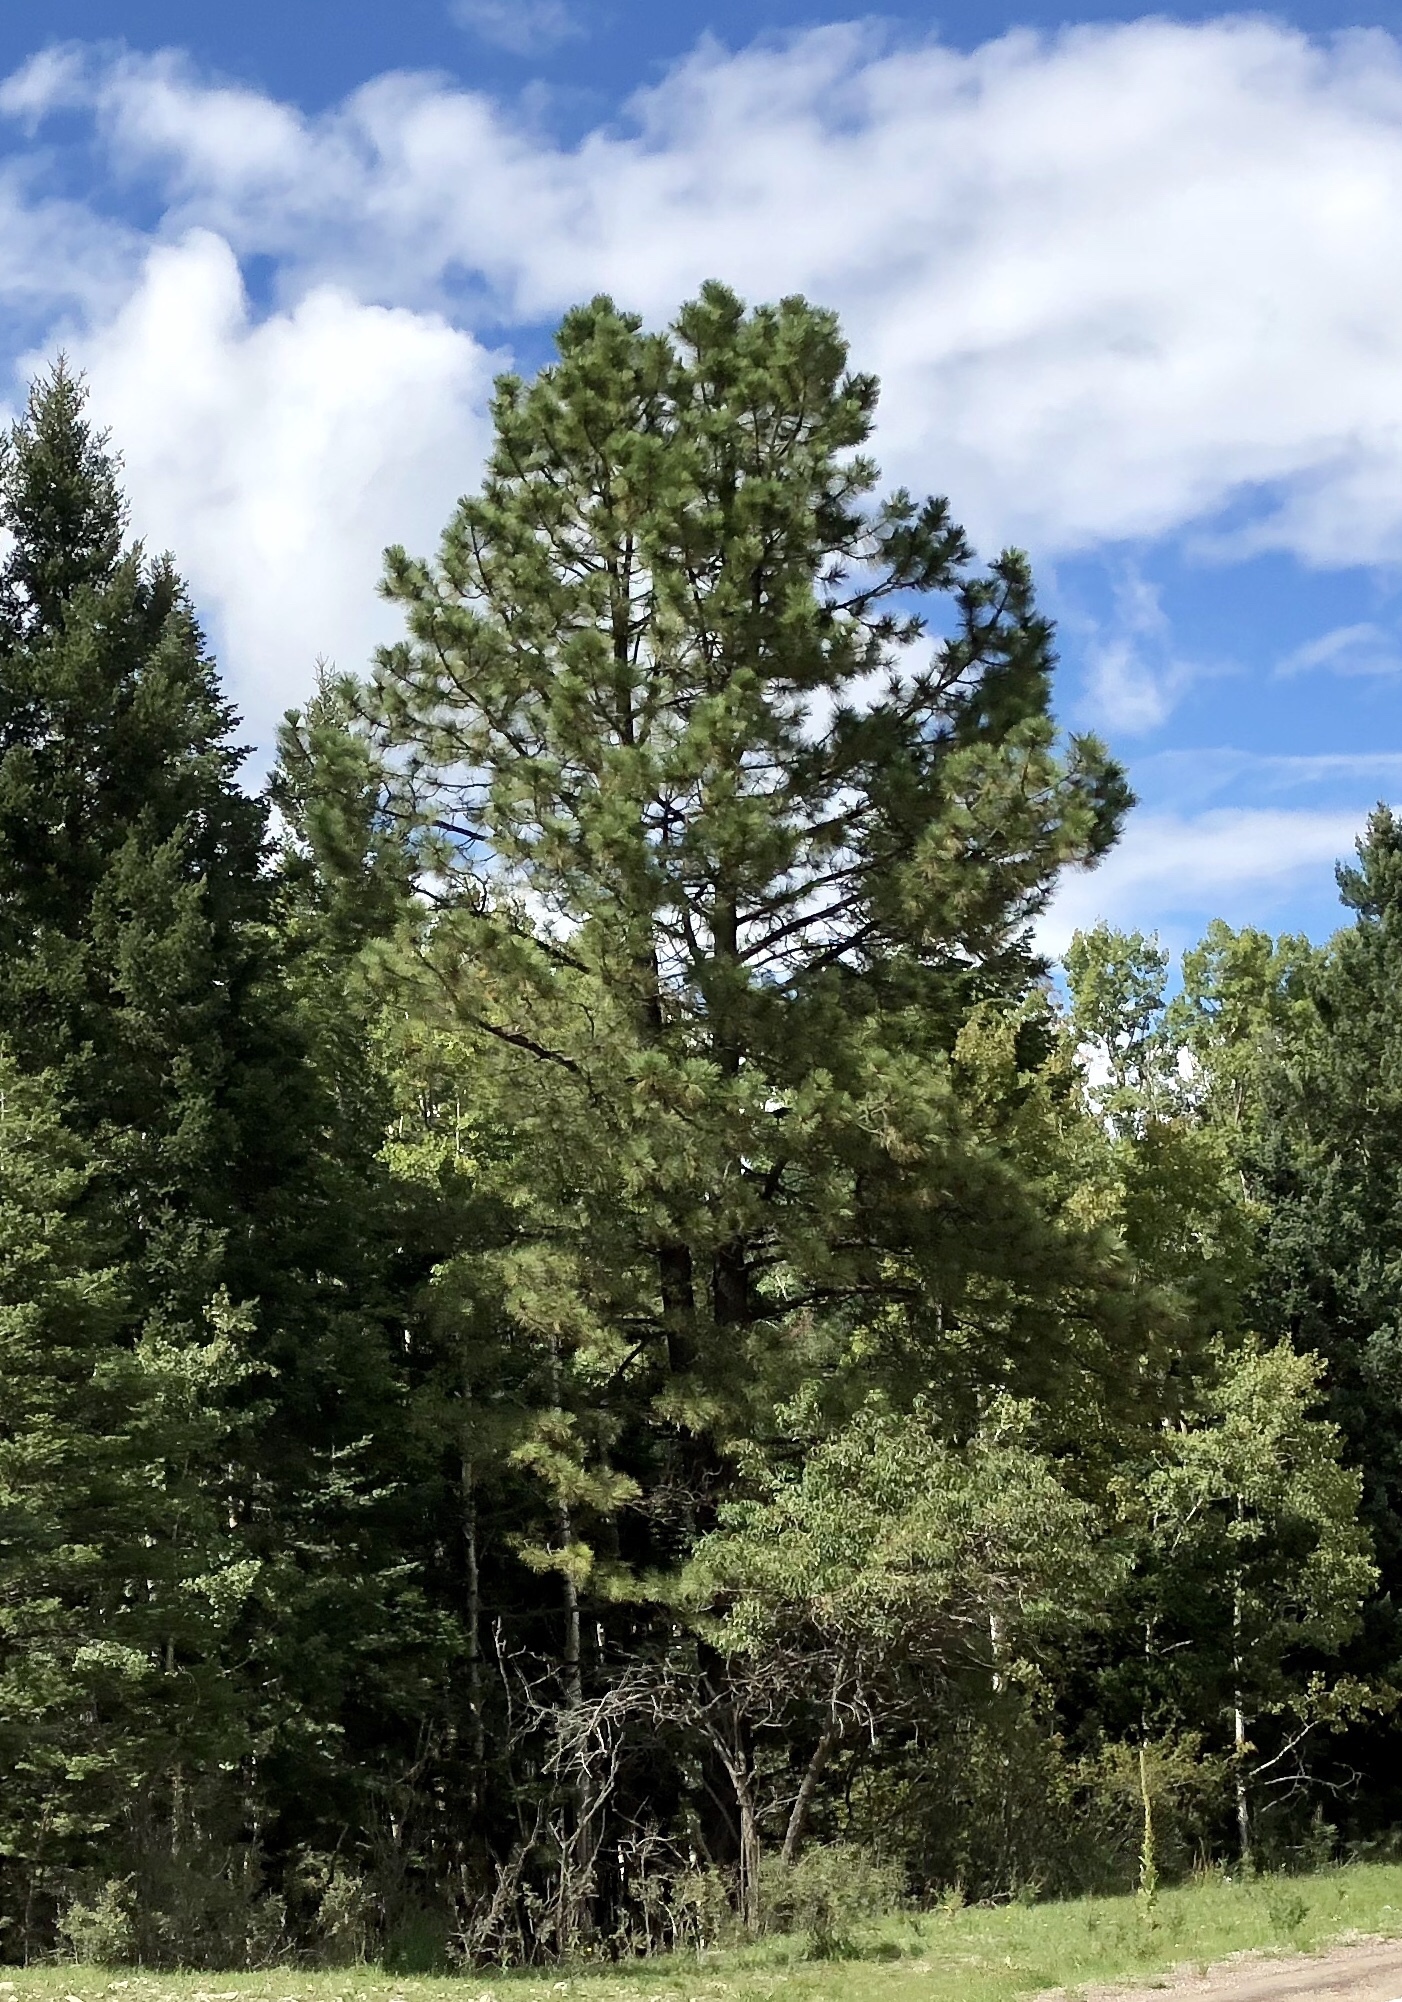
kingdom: Plantae
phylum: Tracheophyta
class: Pinopsida
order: Pinales
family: Pinaceae
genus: Pinus
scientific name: Pinus ponderosa
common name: Western yellow-pine
